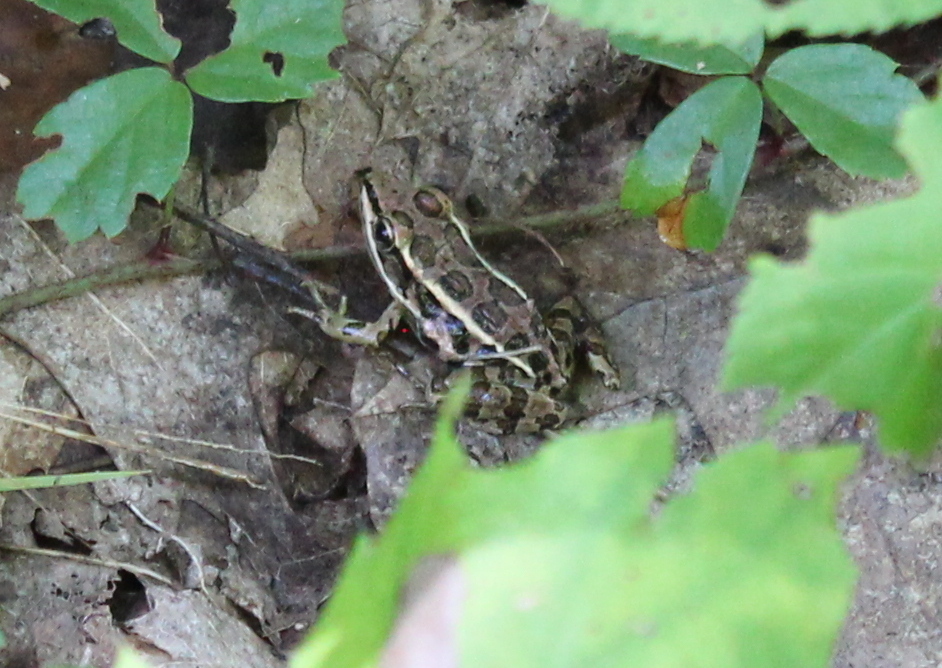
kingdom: Animalia
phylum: Chordata
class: Amphibia
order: Anura
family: Ranidae
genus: Lithobates
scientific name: Lithobates palustris
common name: Pickerel frog
